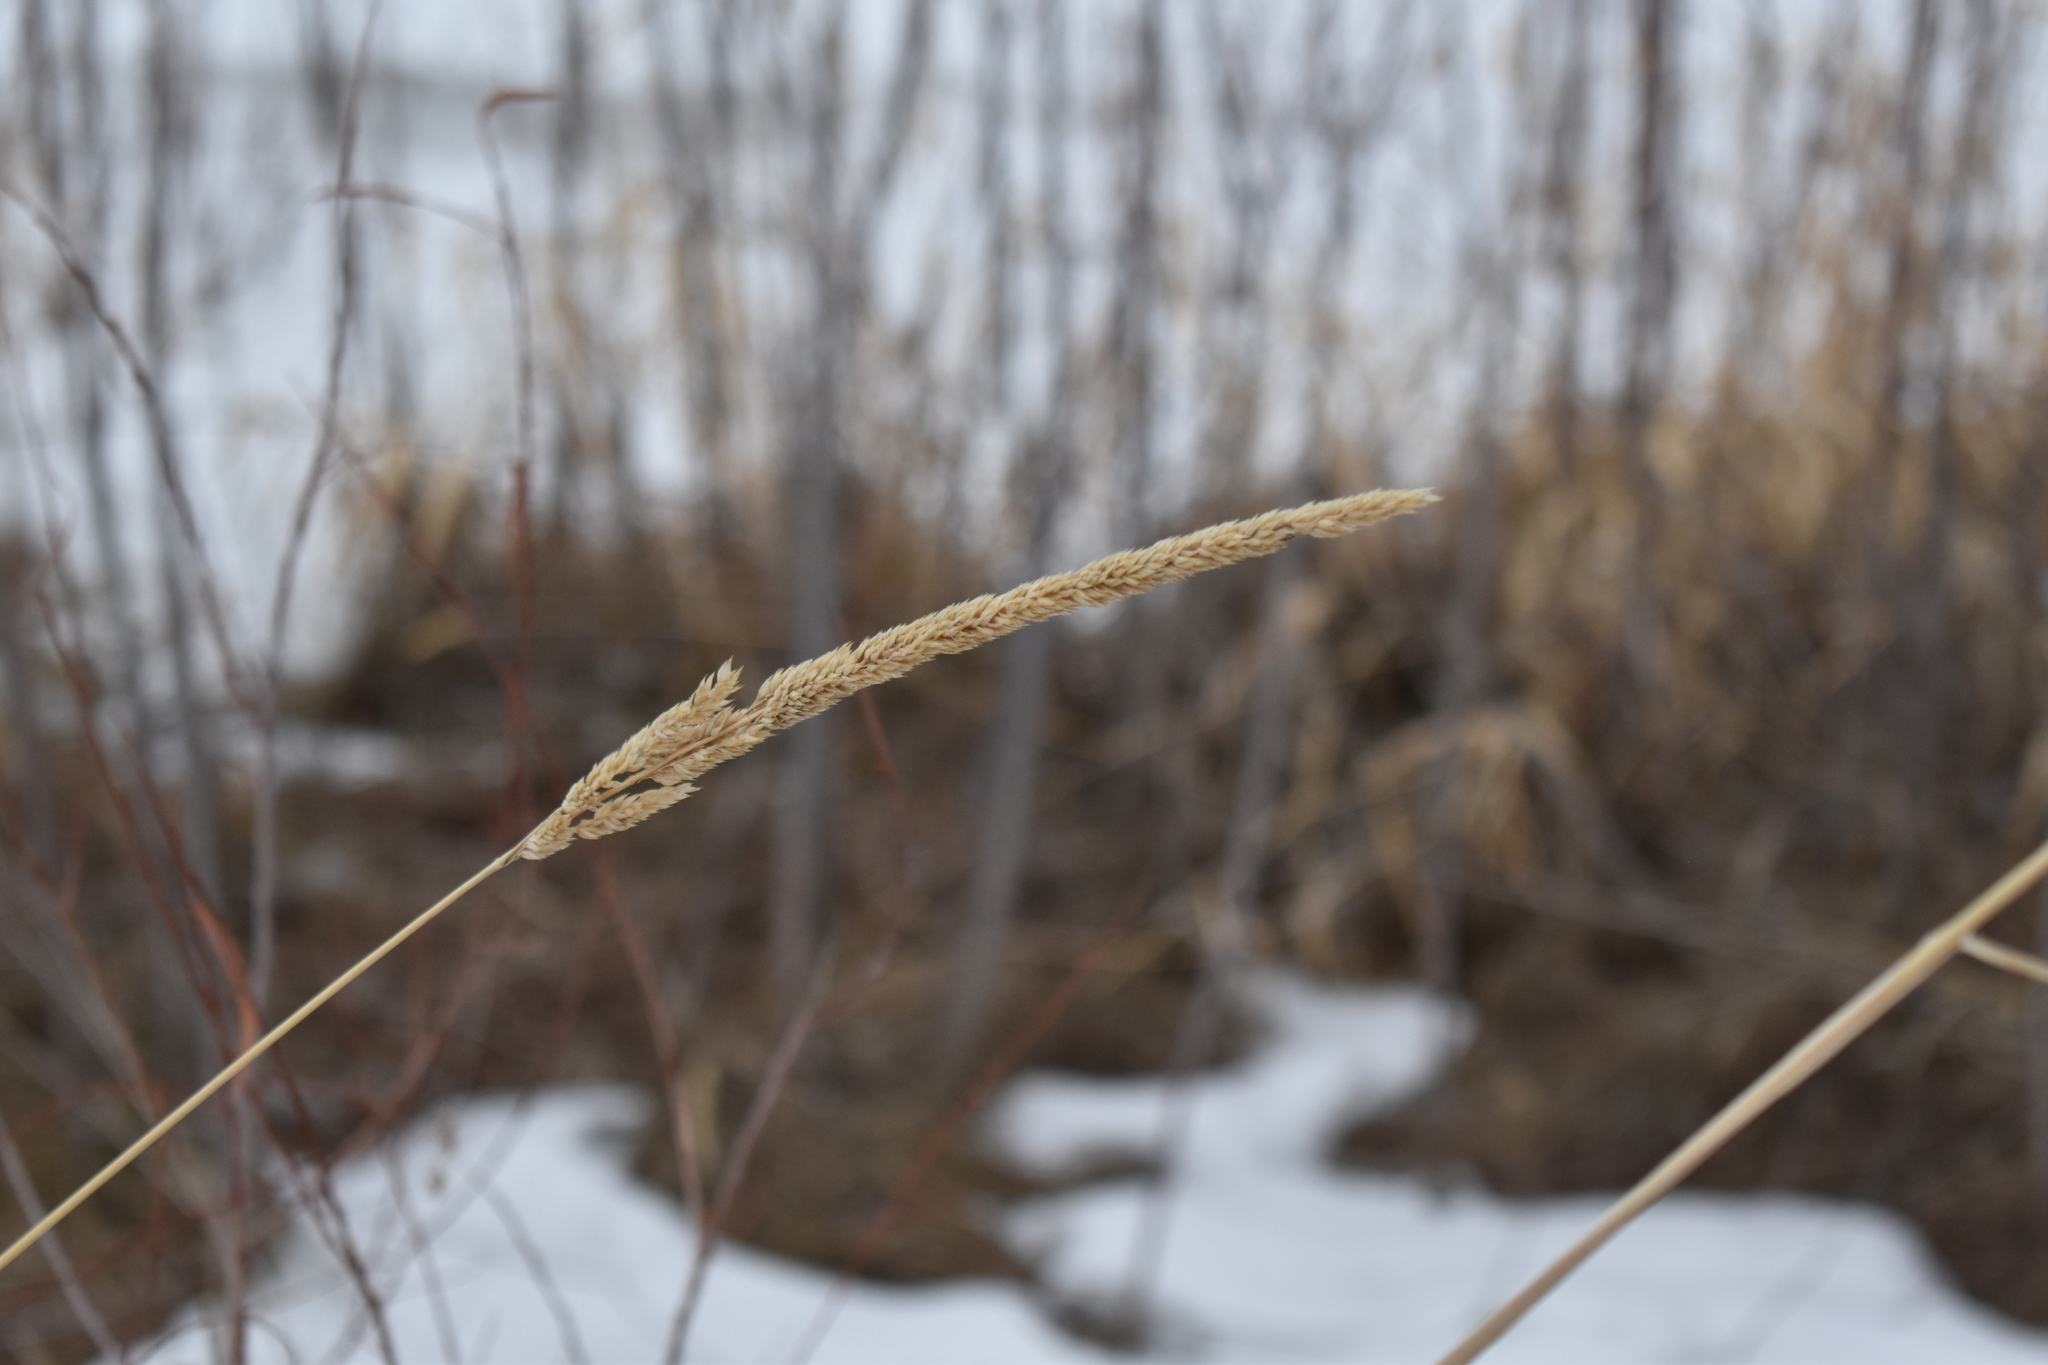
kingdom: Plantae
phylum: Tracheophyta
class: Liliopsida
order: Poales
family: Poaceae
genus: Phalaris
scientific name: Phalaris arundinacea
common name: Reed canary-grass
